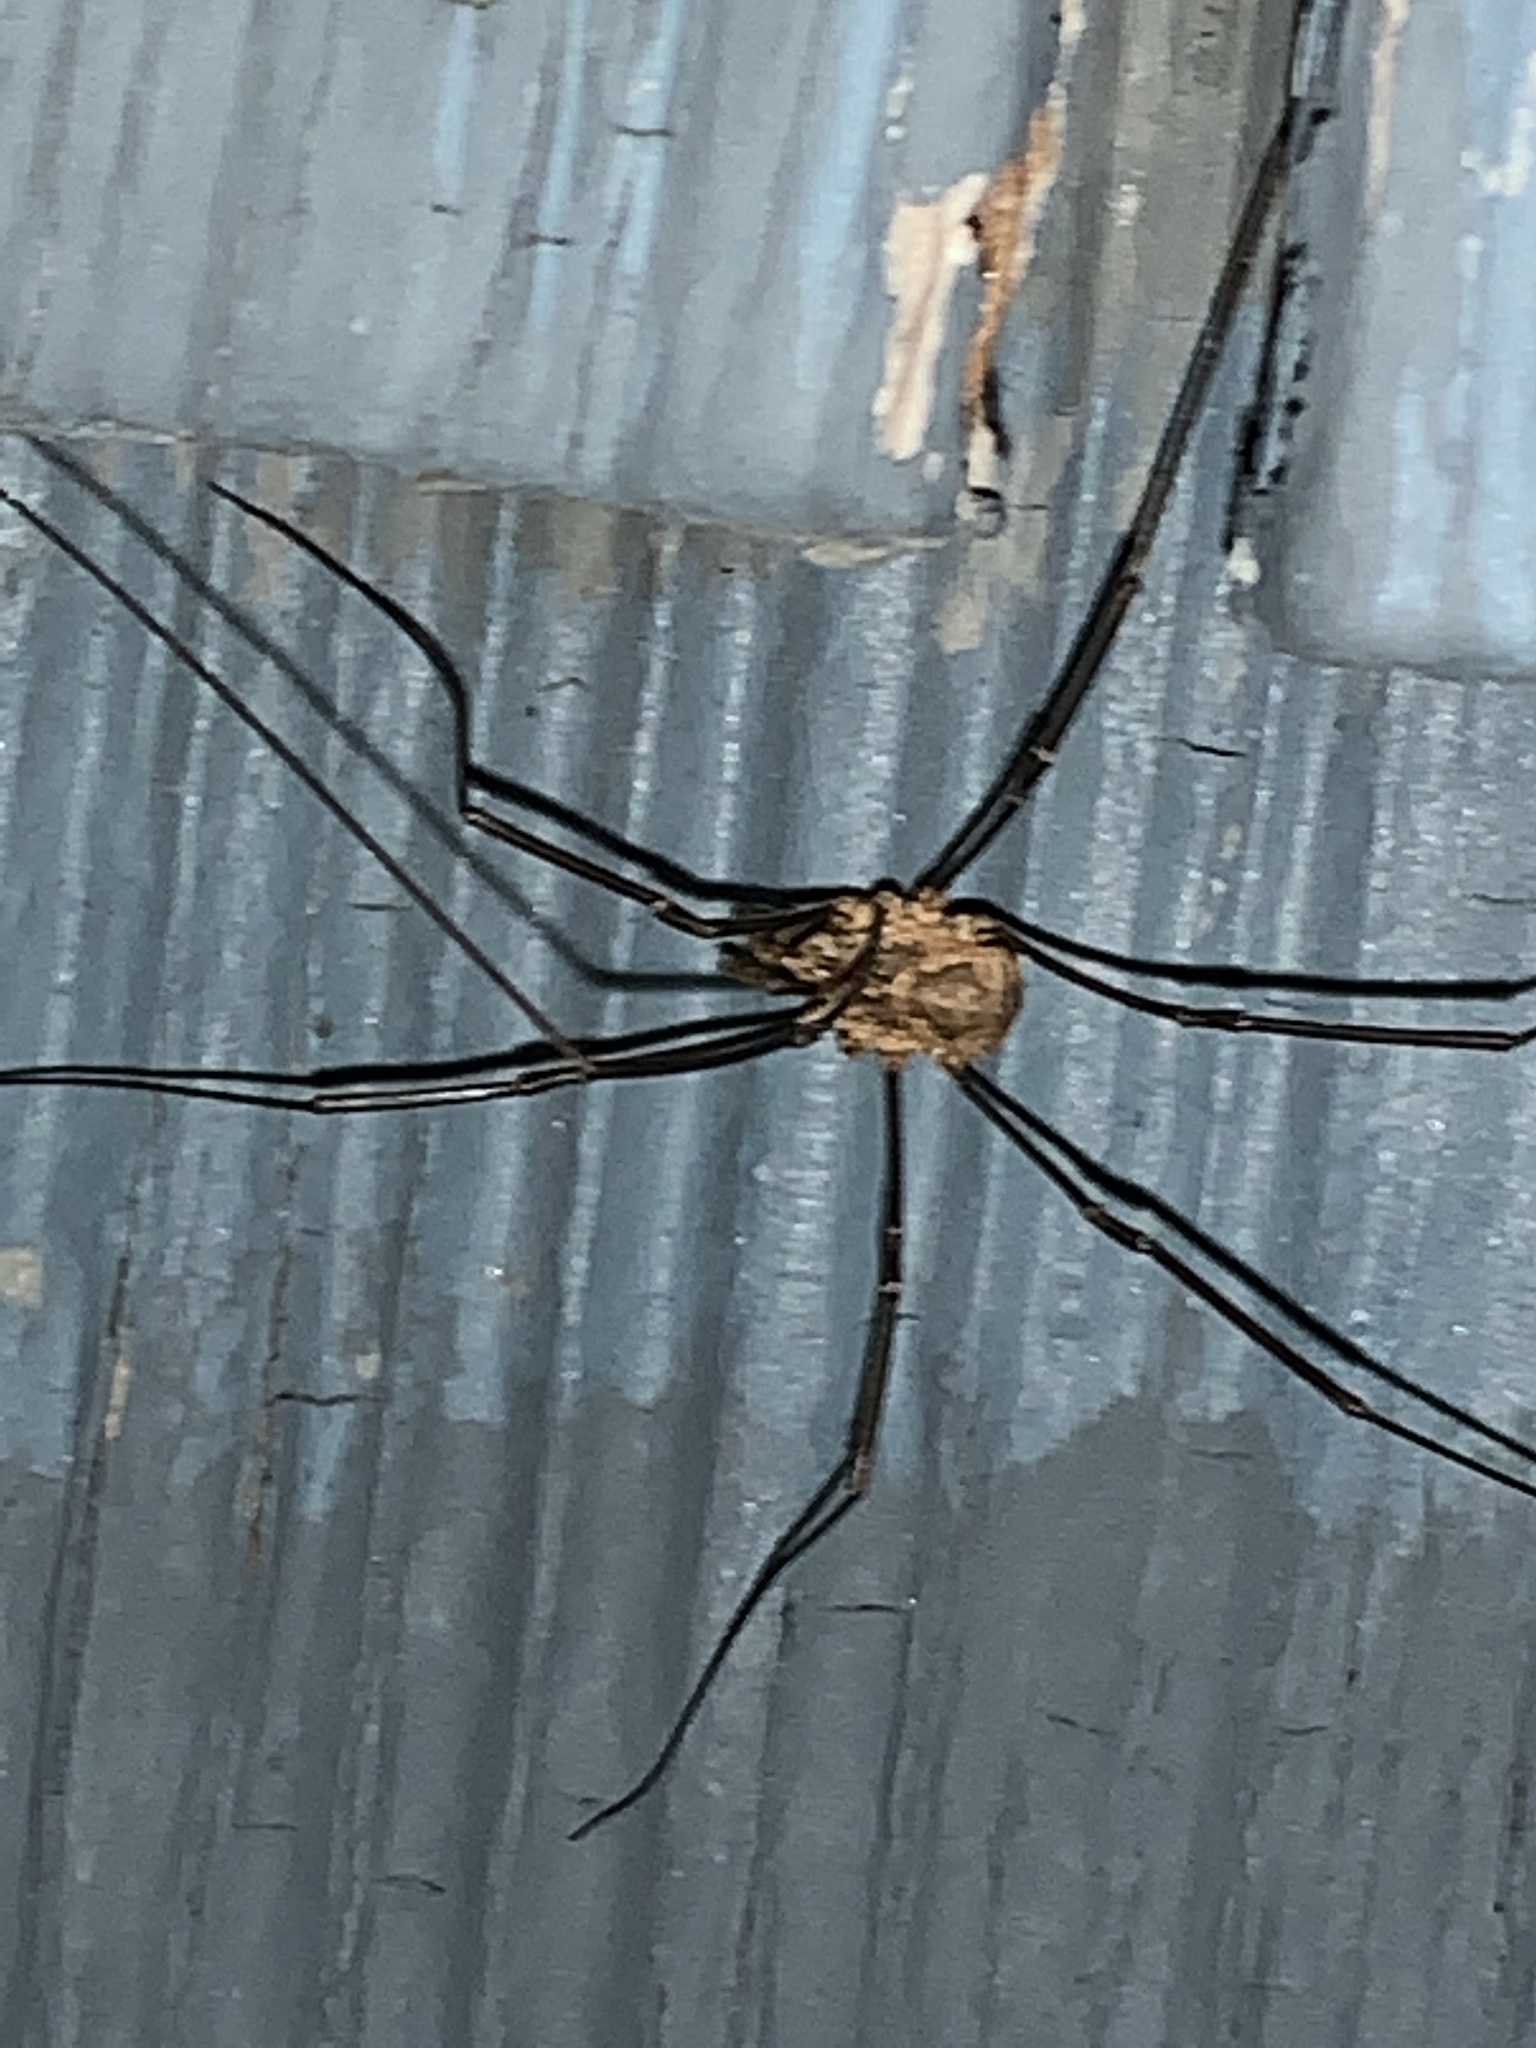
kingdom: Animalia
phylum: Arthropoda
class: Arachnida
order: Opiliones
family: Phalangiidae
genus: Phalangium
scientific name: Phalangium opilio
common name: Daddy longleg
